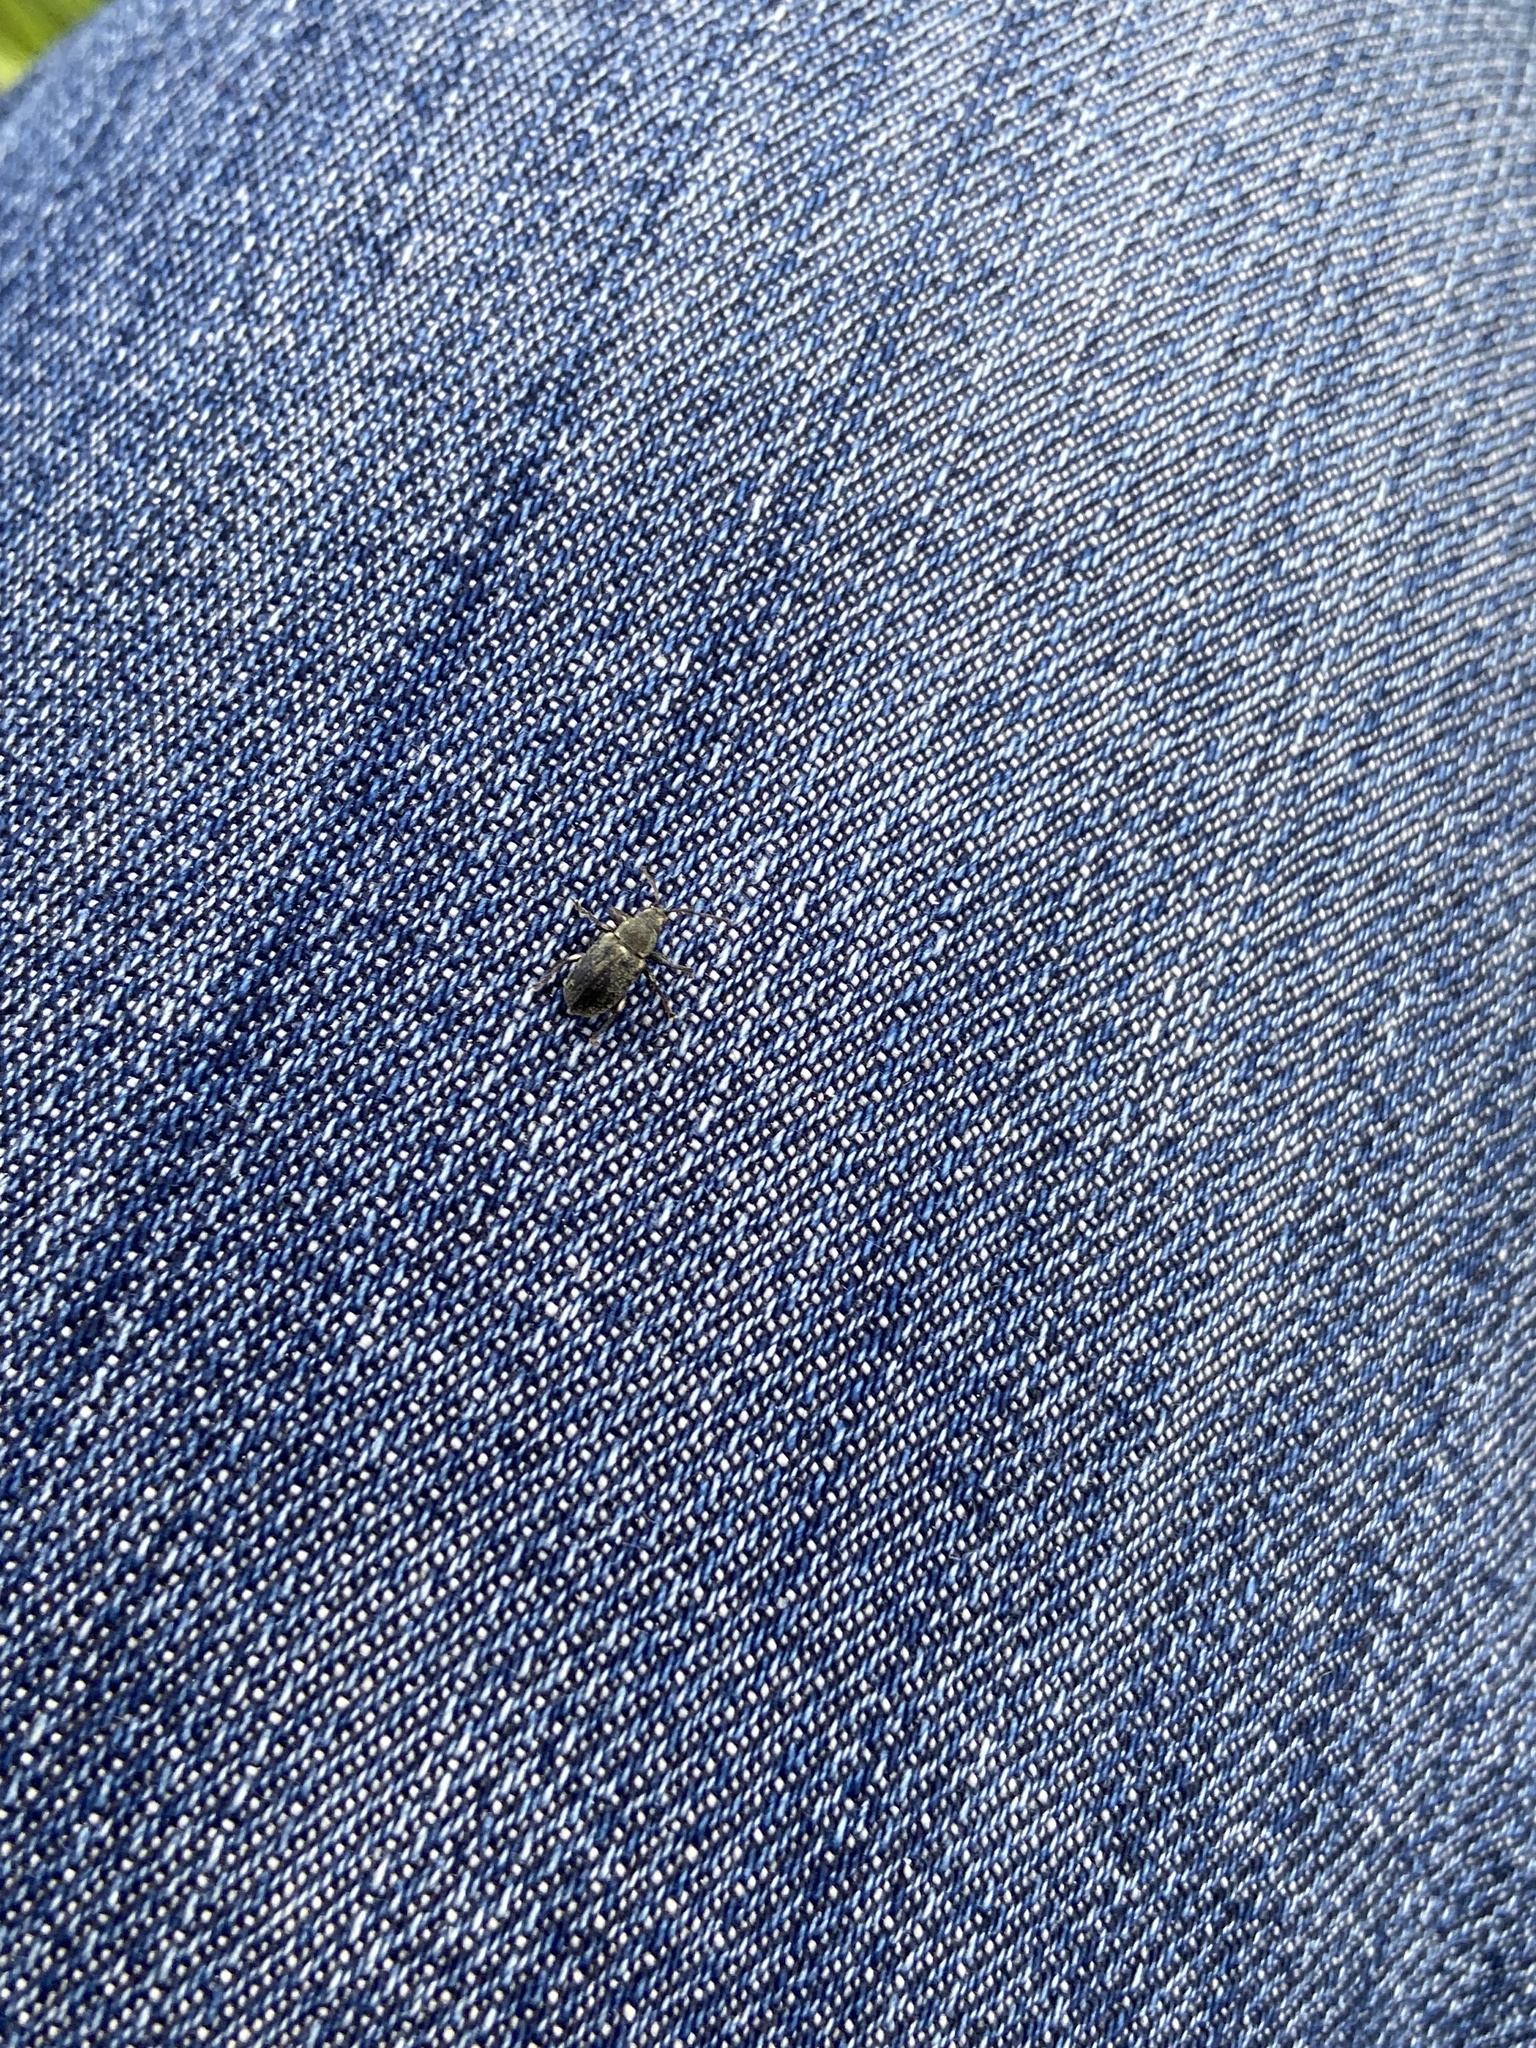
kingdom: Animalia
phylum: Arthropoda
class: Insecta
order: Coleoptera
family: Curculionidae
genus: Phyllobius
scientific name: Phyllobius pyri
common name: Common leaf weevil
